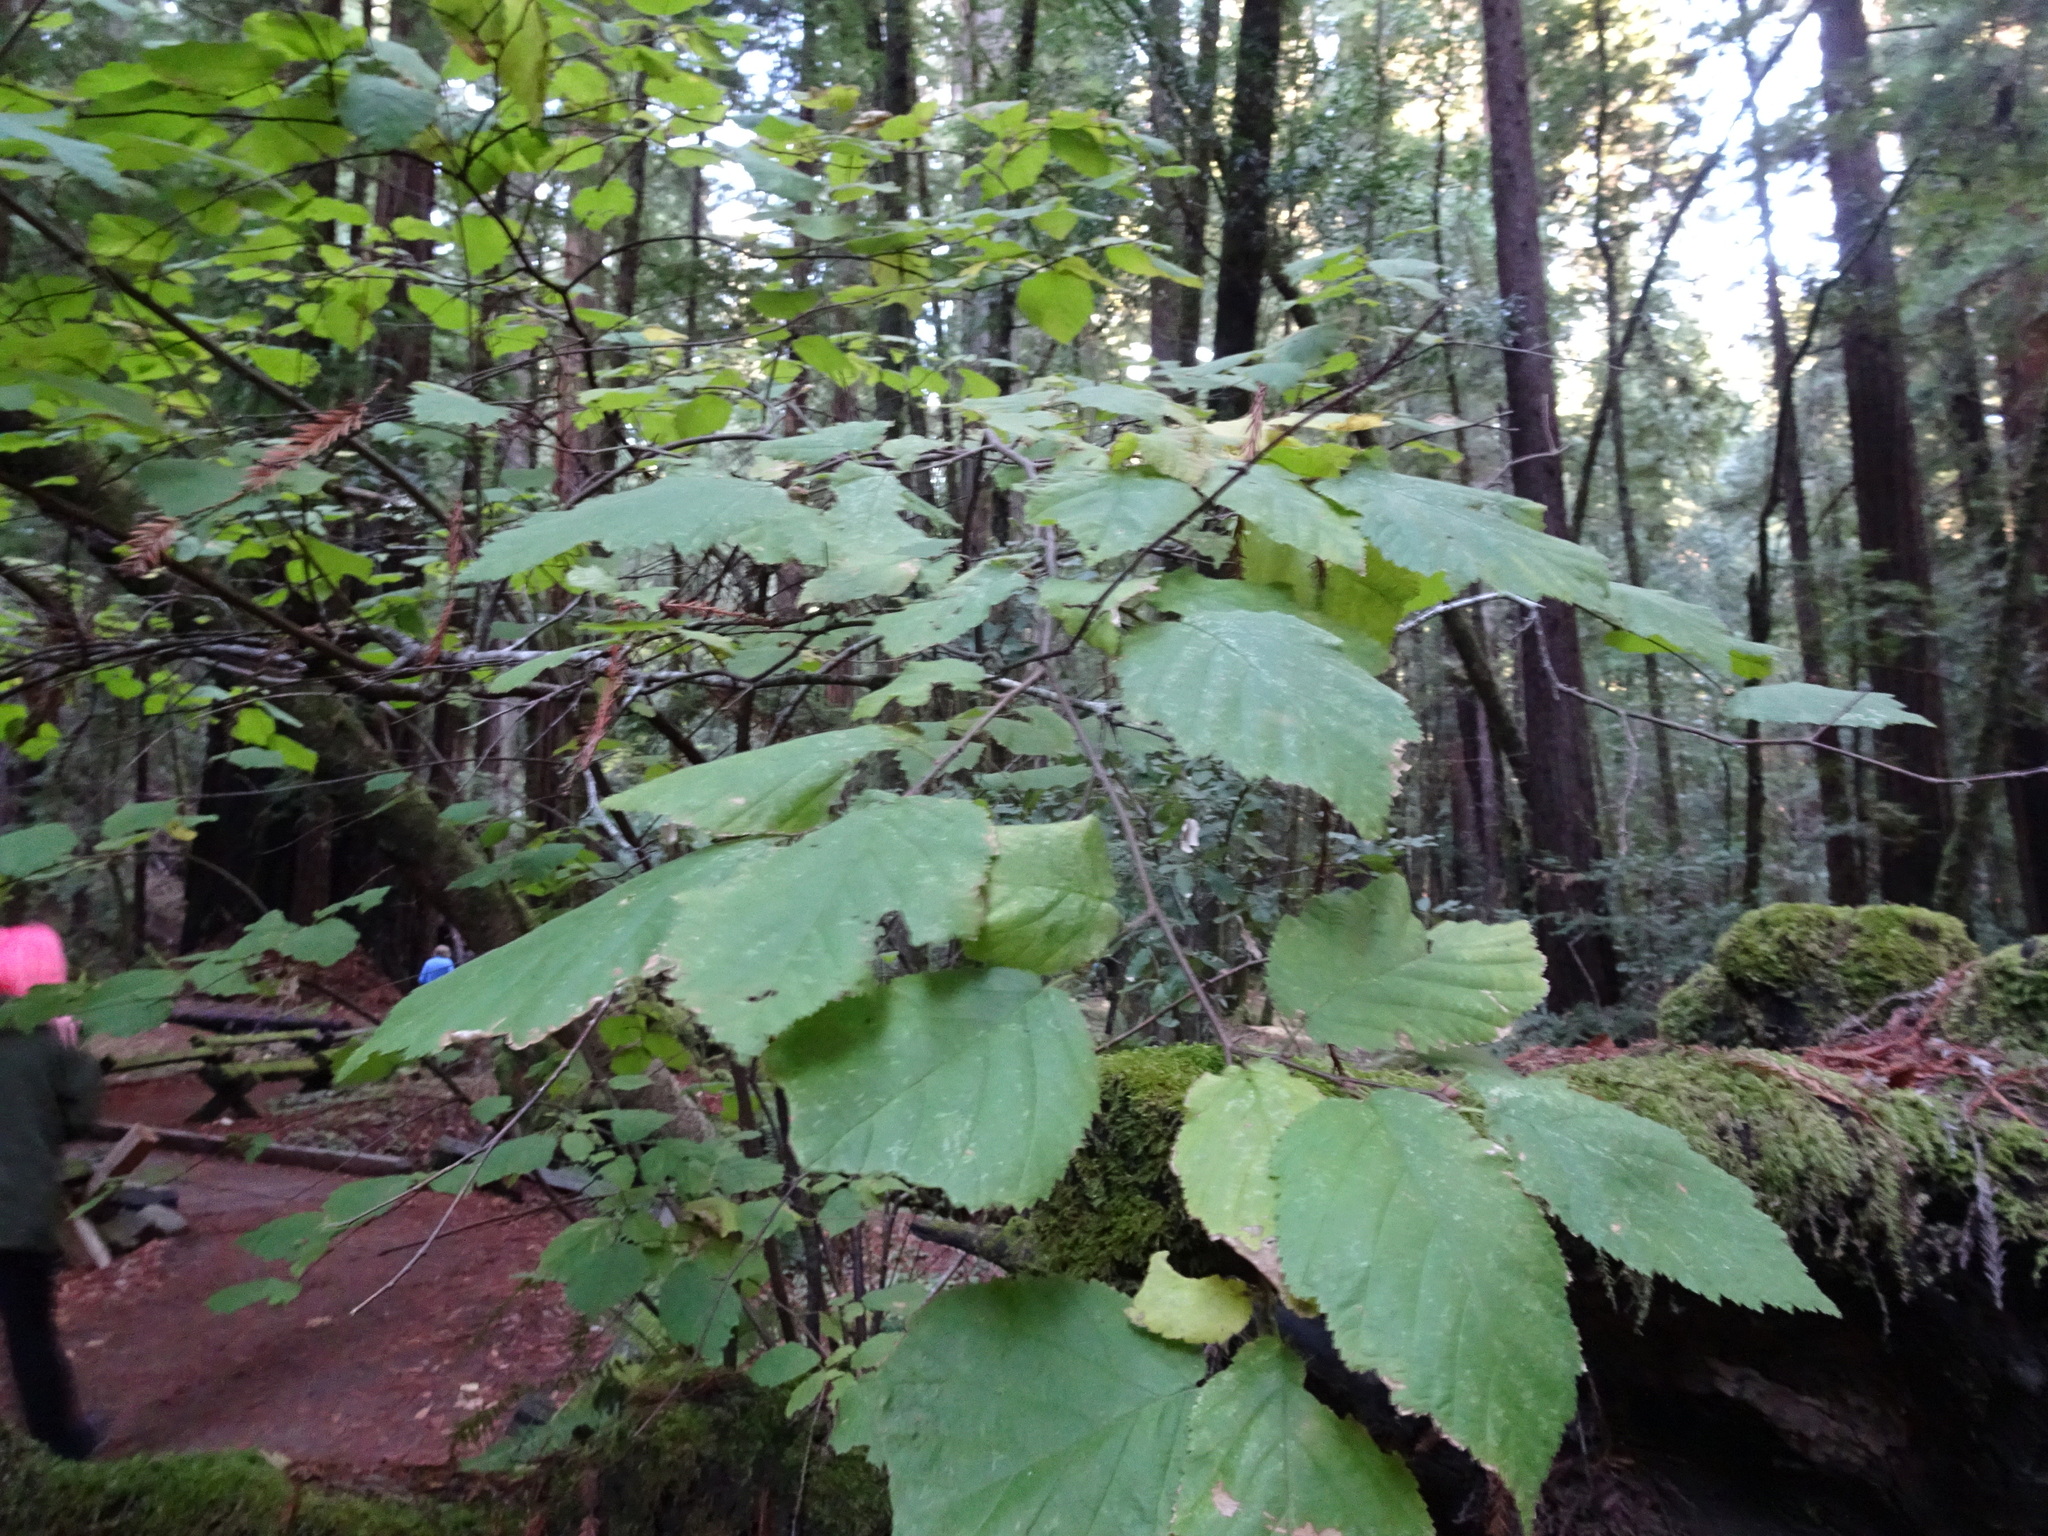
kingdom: Plantae
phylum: Tracheophyta
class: Magnoliopsida
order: Fagales
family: Betulaceae
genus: Corylus
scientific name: Corylus cornuta
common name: Beaked hazel
